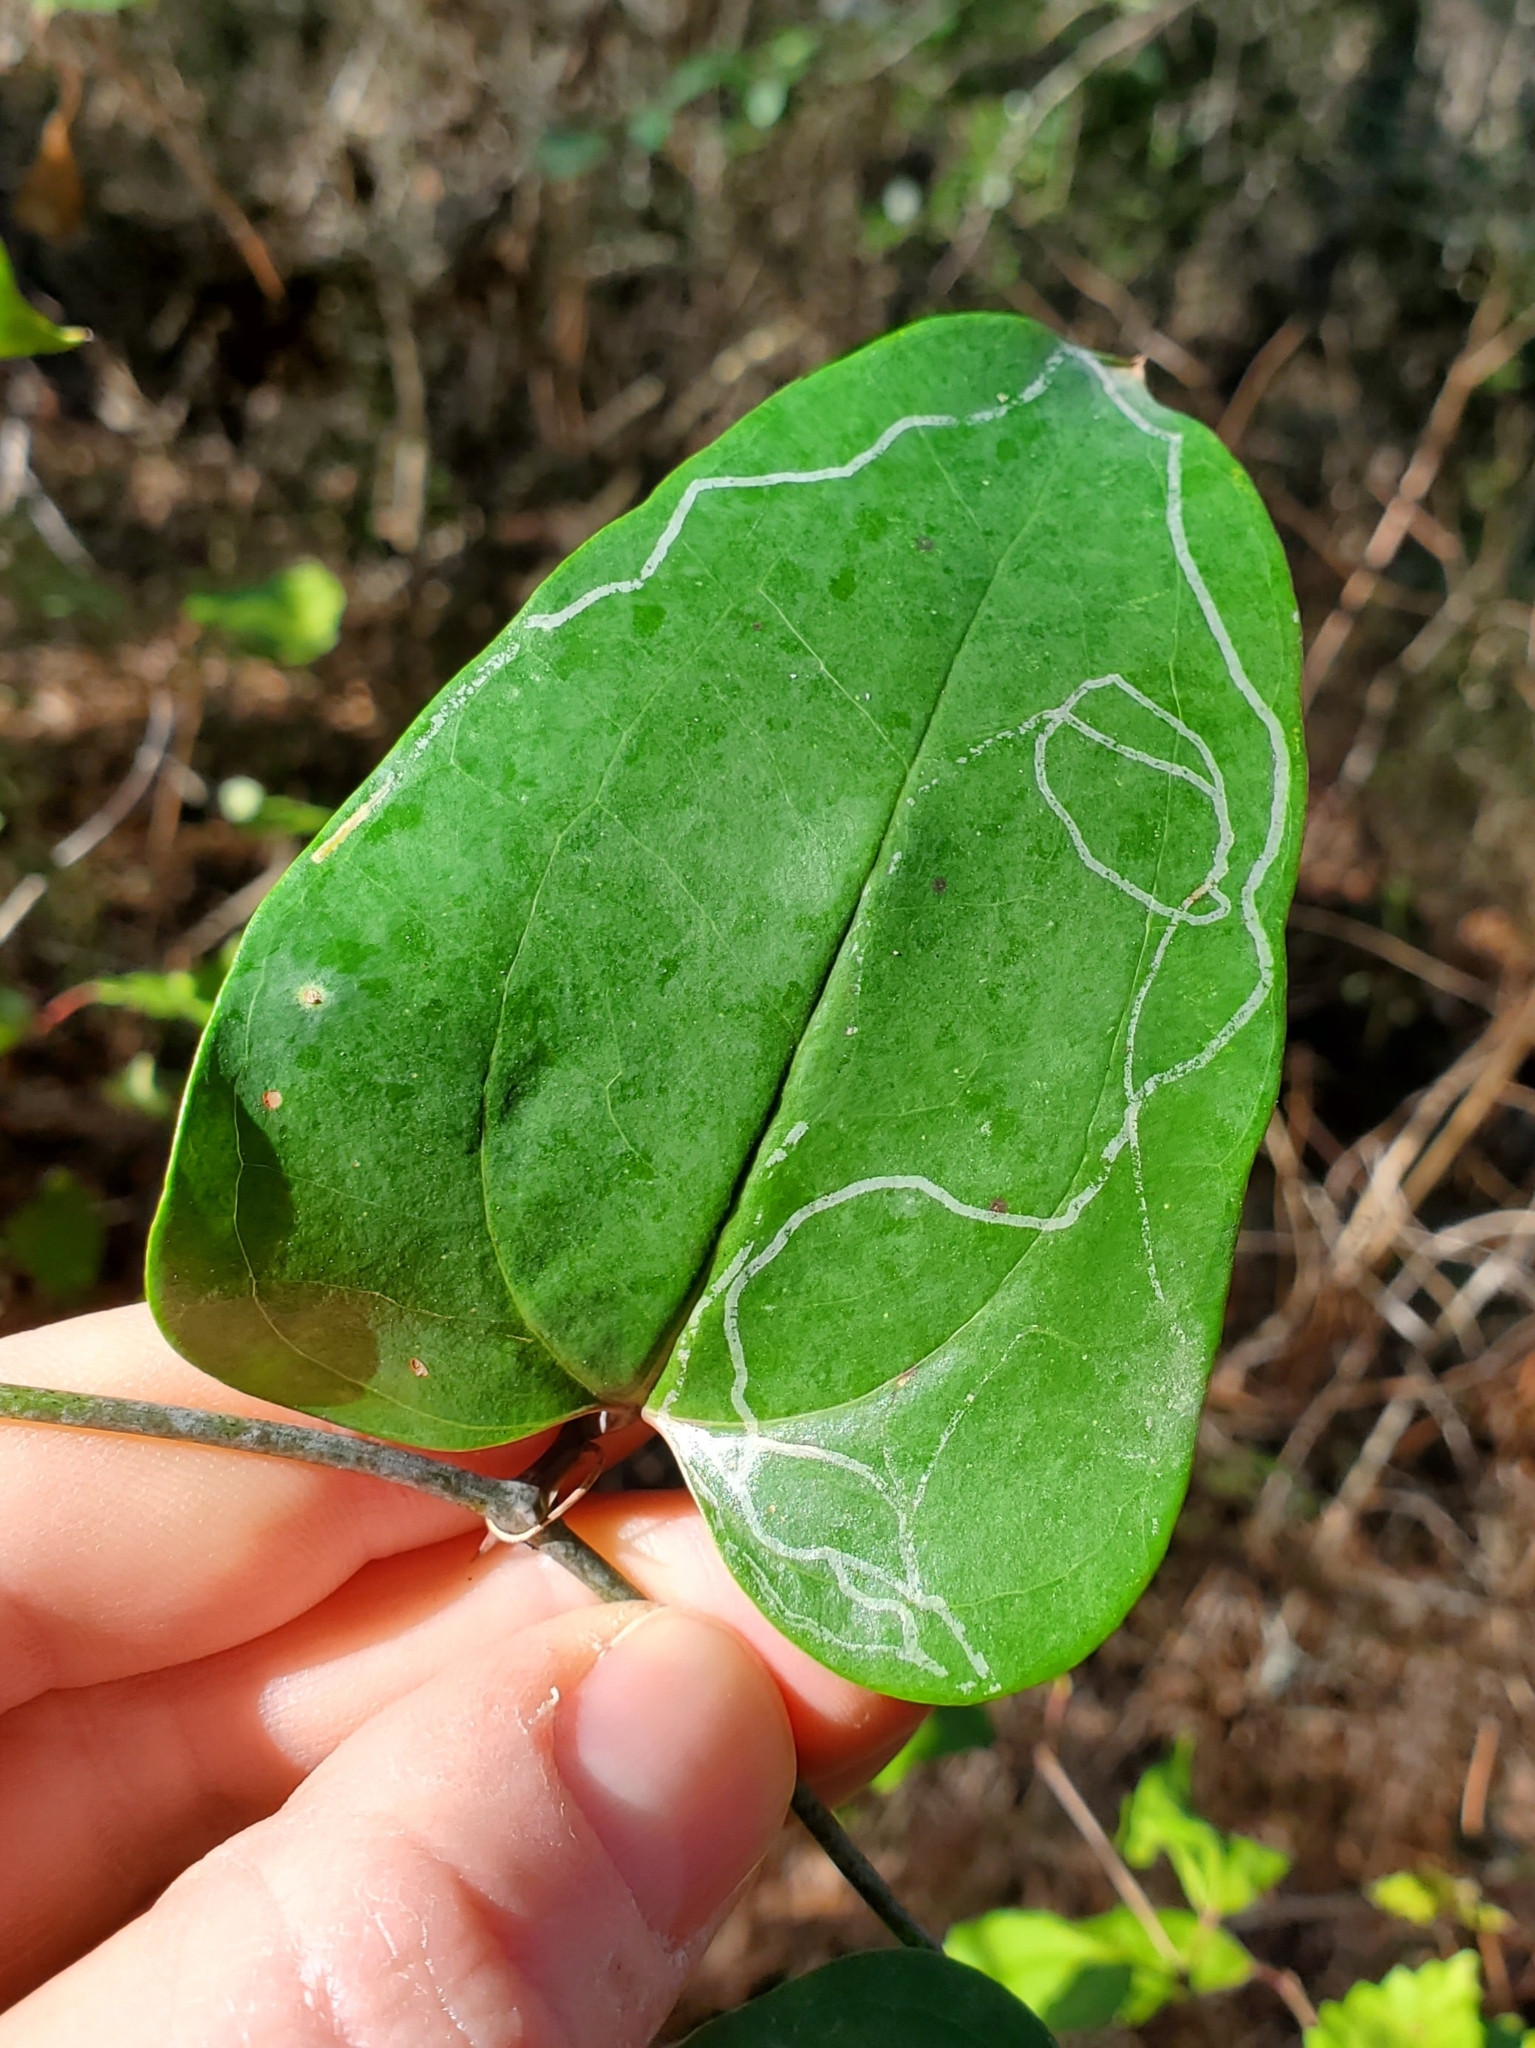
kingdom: Animalia
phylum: Arthropoda
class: Insecta
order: Lepidoptera
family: Gracillariidae
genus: Marmara
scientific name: Marmara smilacisella
